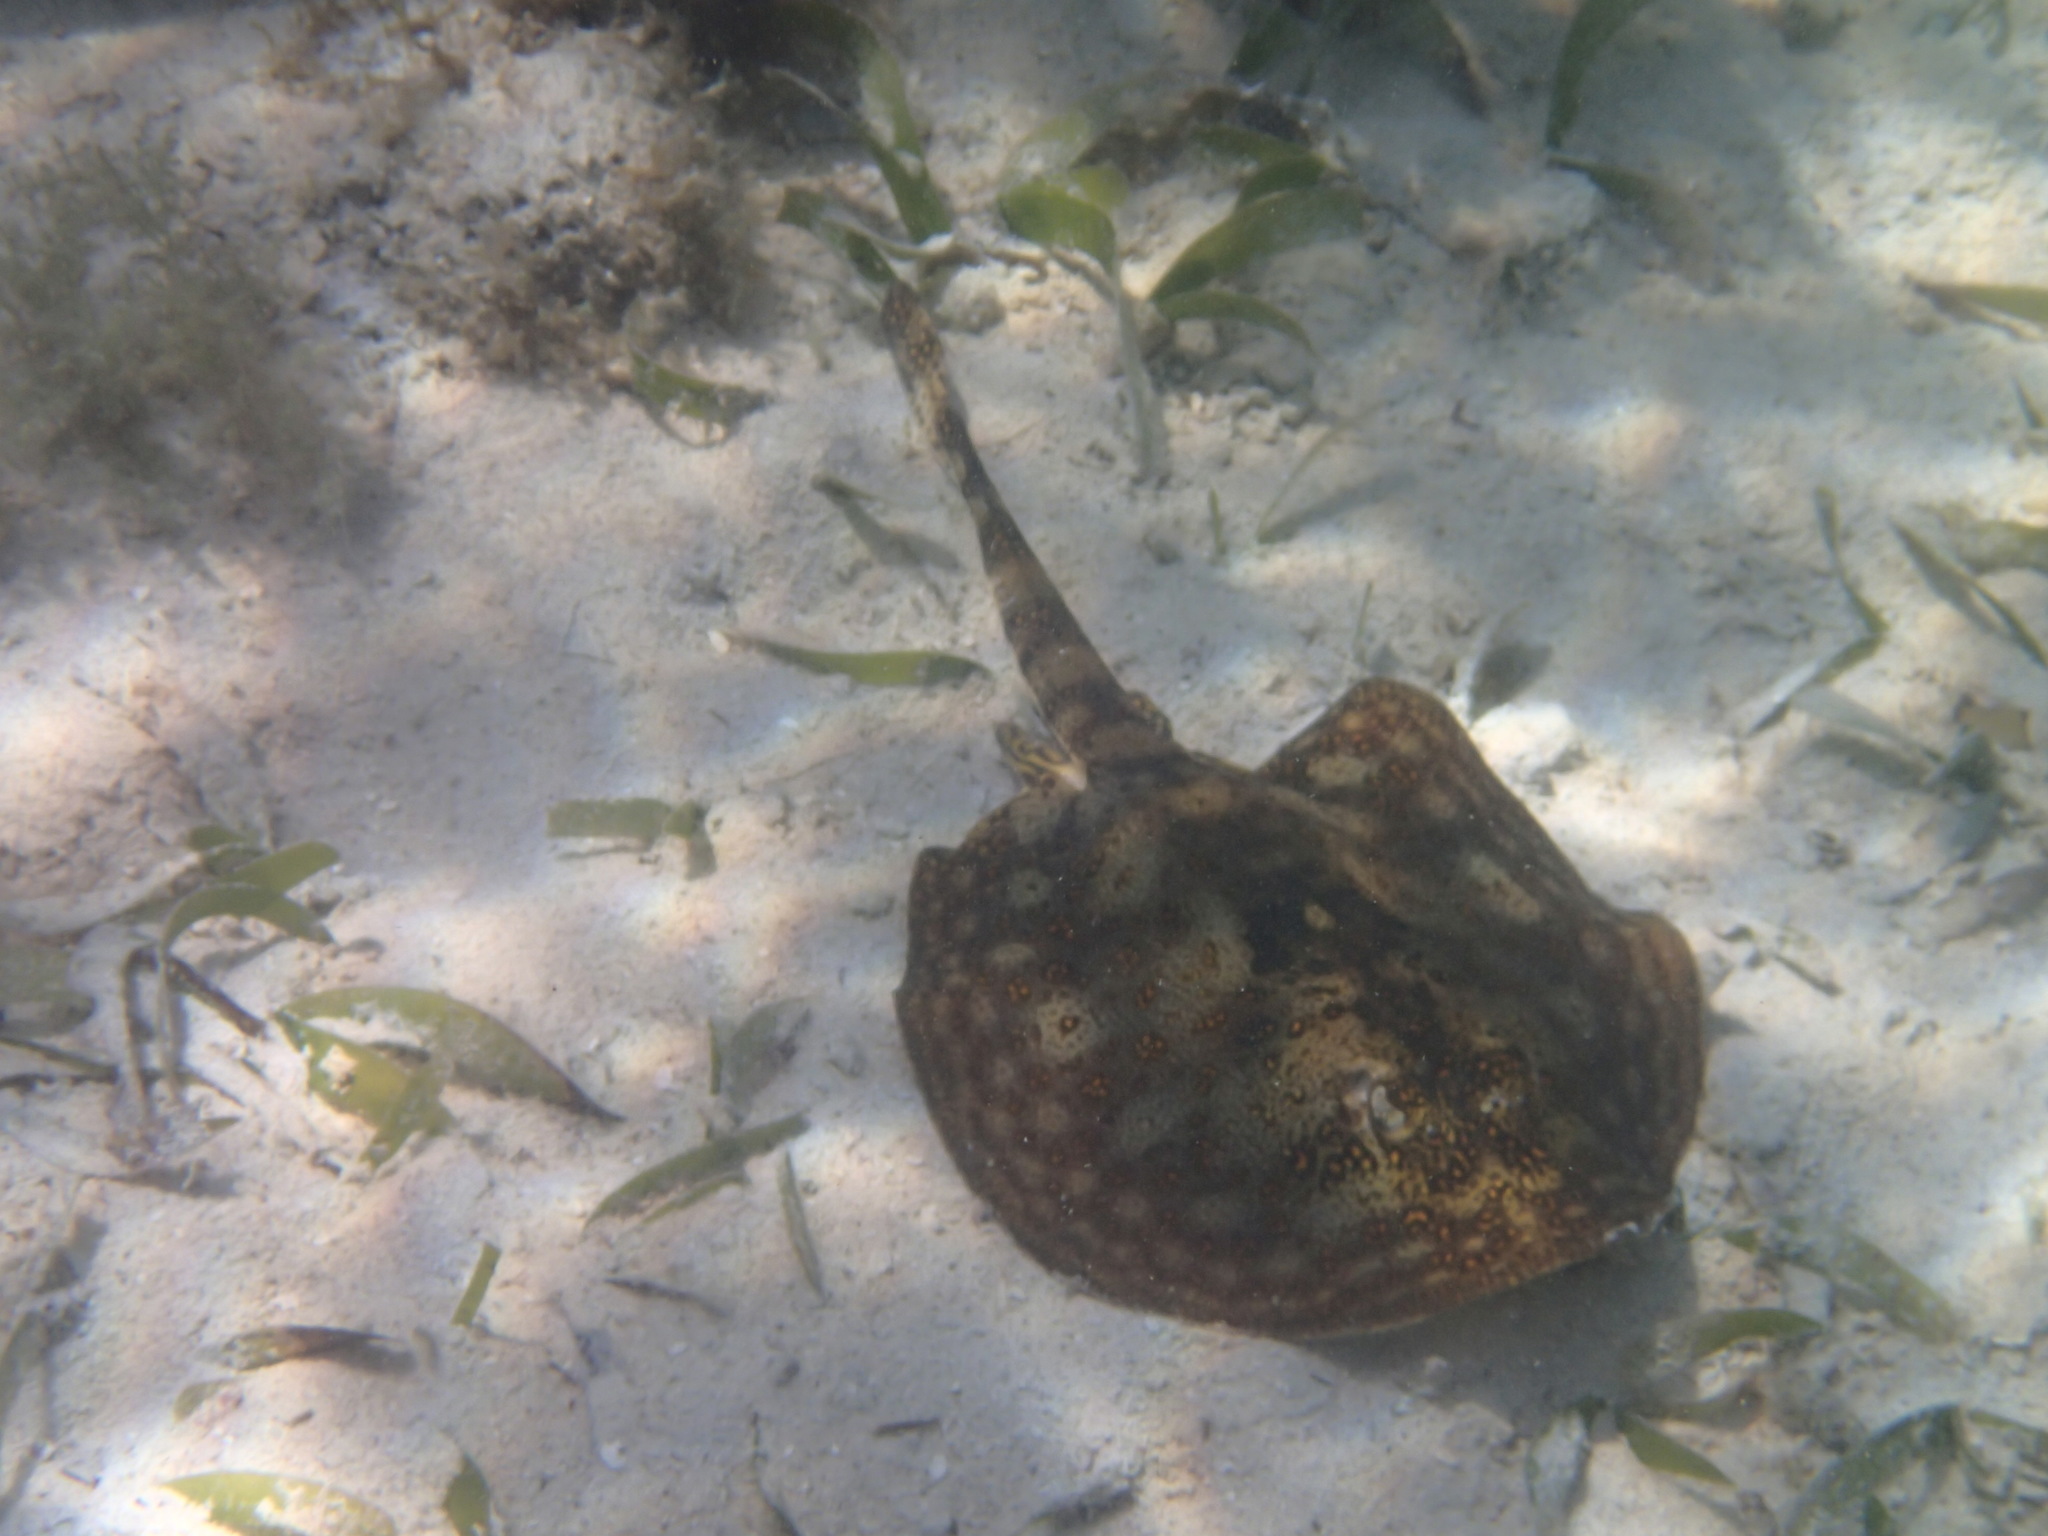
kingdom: Animalia
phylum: Chordata
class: Elasmobranchii
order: Myliobatiformes
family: Urotrygonidae
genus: Urobatis
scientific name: Urobatis jamaicensis
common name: Yellow stingray
